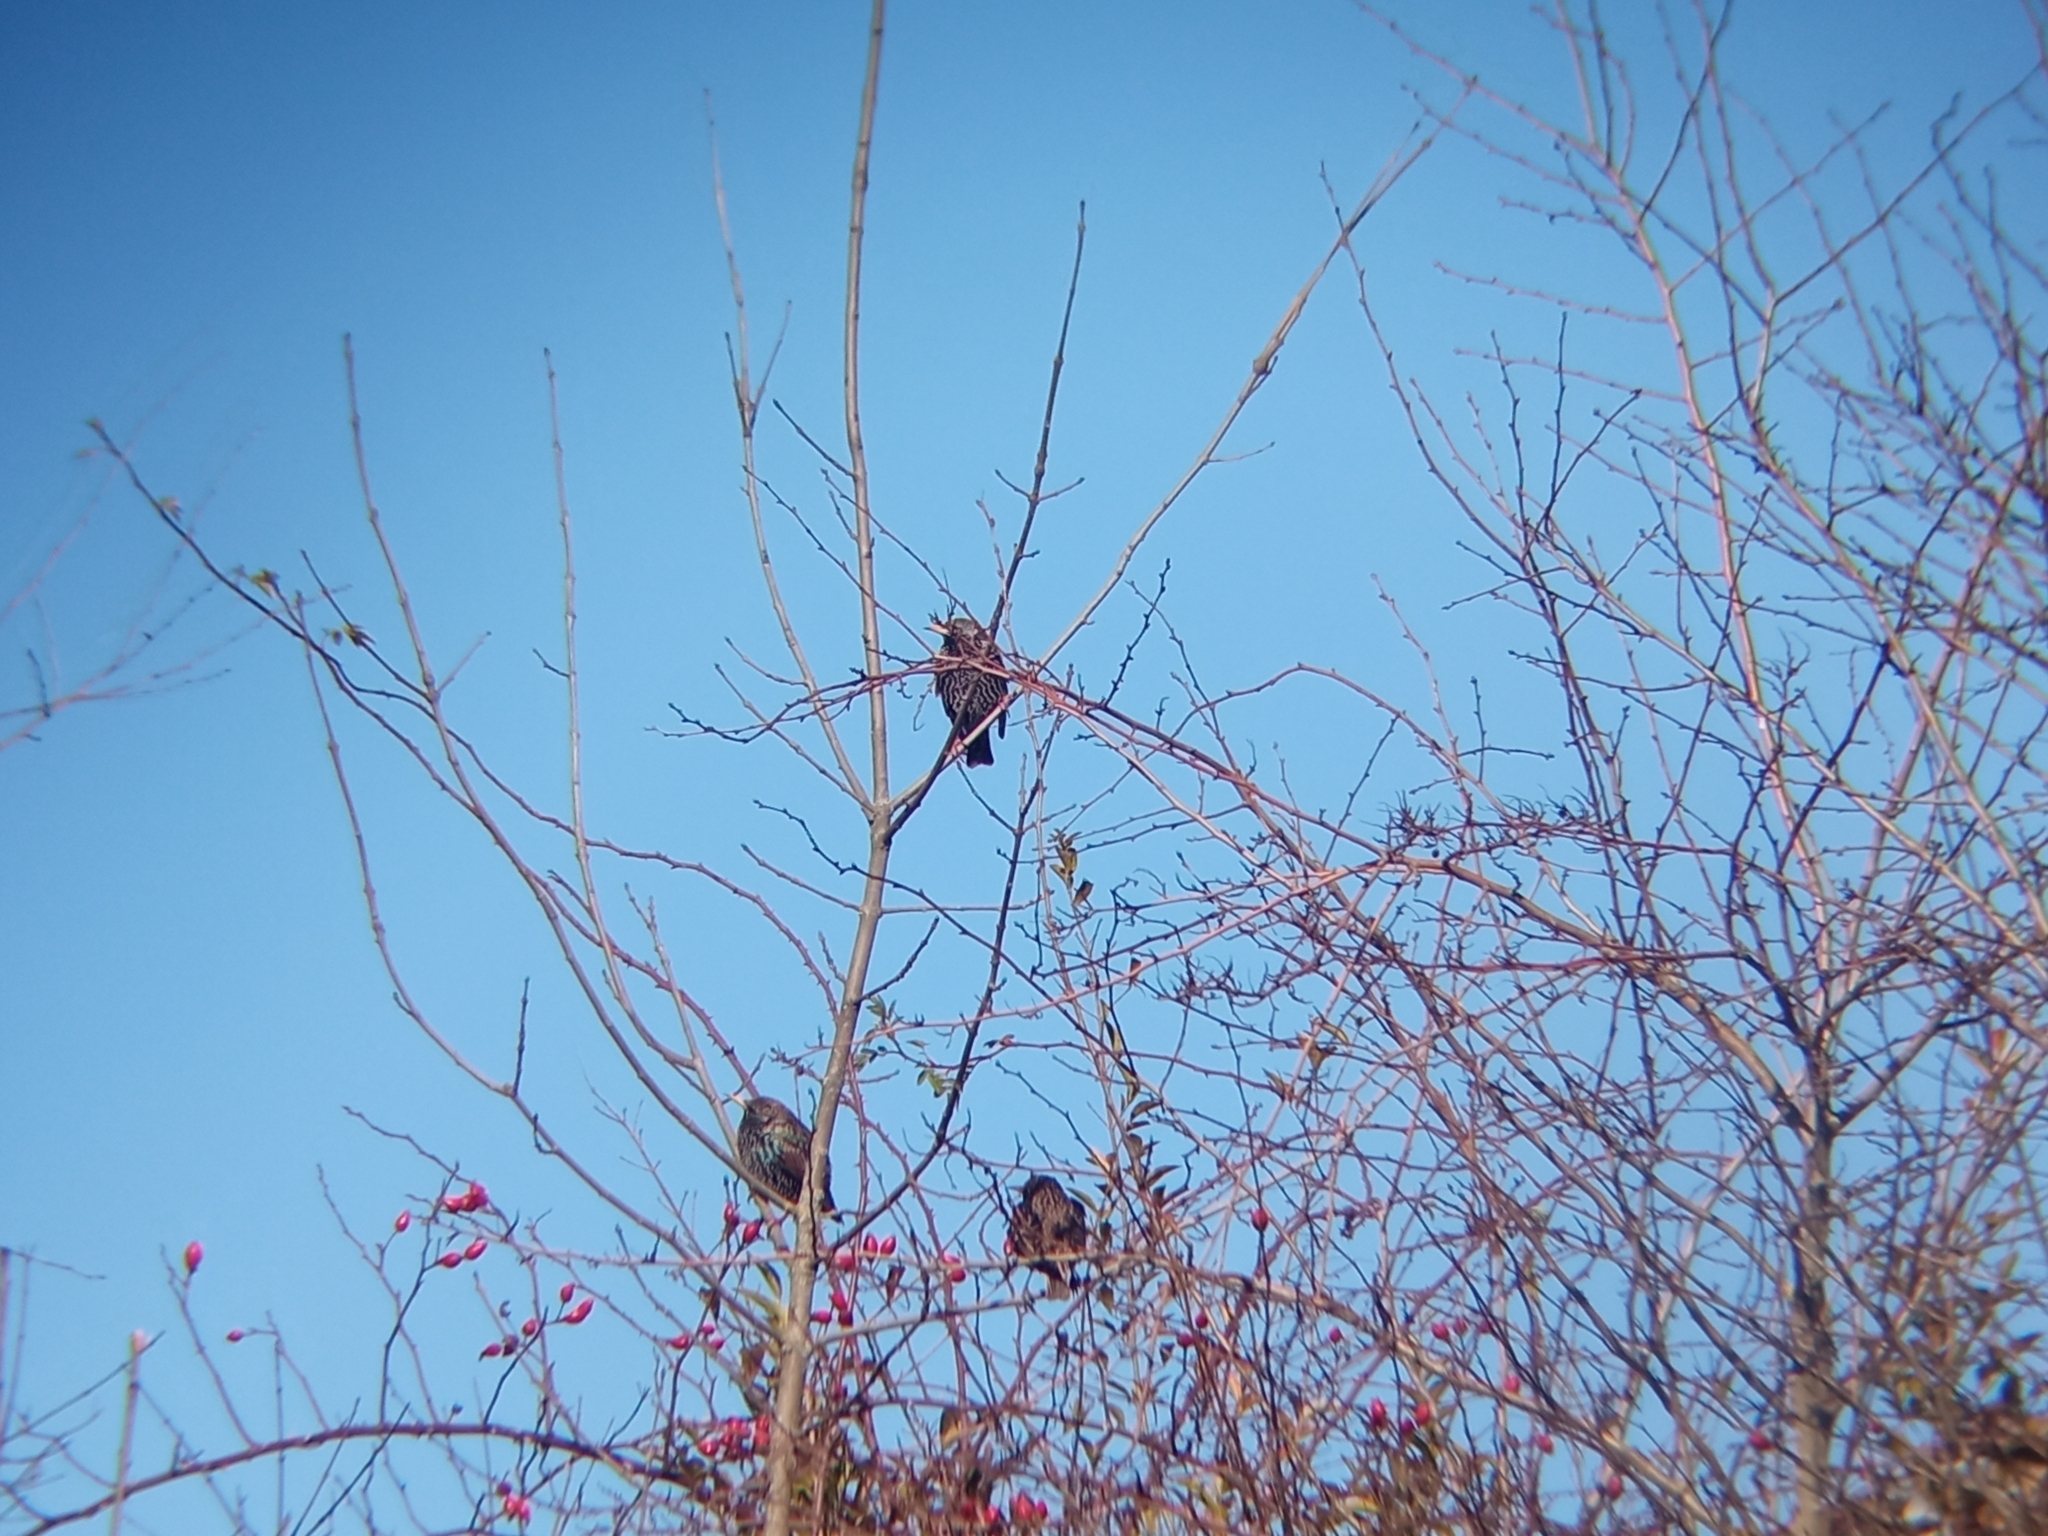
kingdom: Animalia
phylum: Chordata
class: Aves
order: Passeriformes
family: Sturnidae
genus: Sturnus
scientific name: Sturnus vulgaris
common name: Common starling
